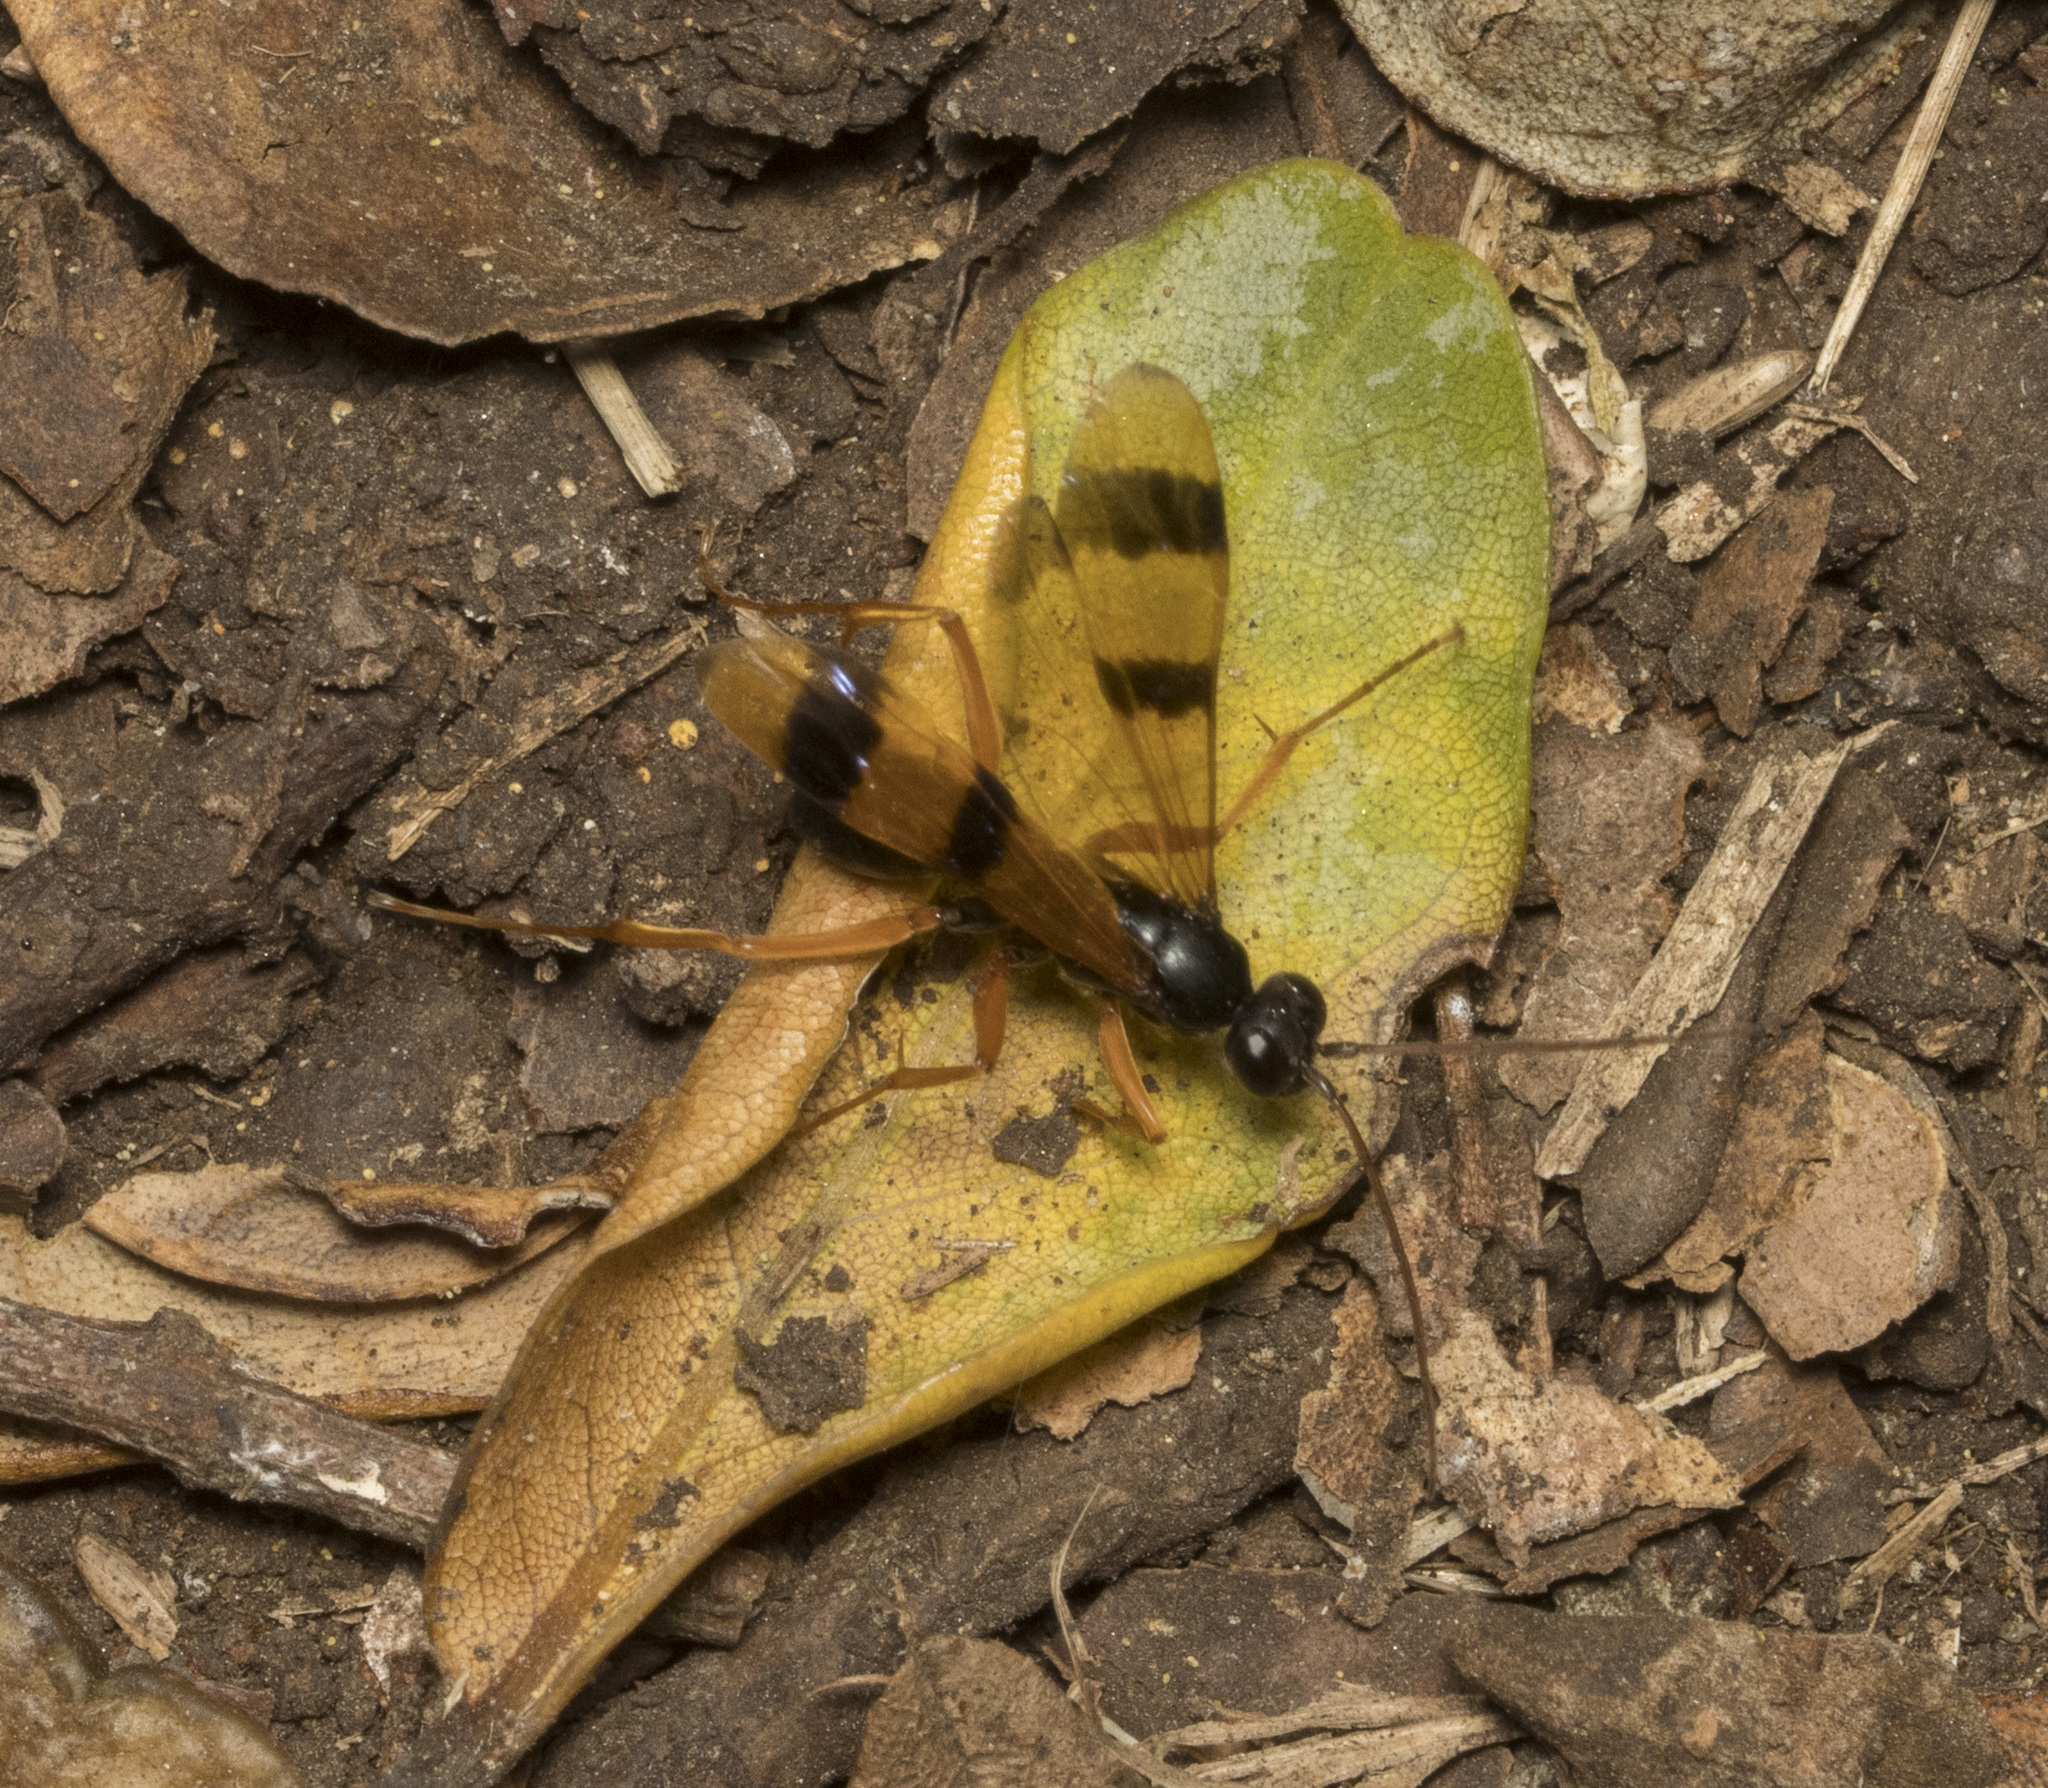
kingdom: Animalia
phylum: Arthropoda
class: Insecta
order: Hymenoptera
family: Pompilidae
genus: Sphictostethus
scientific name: Sphictostethus striatulus
